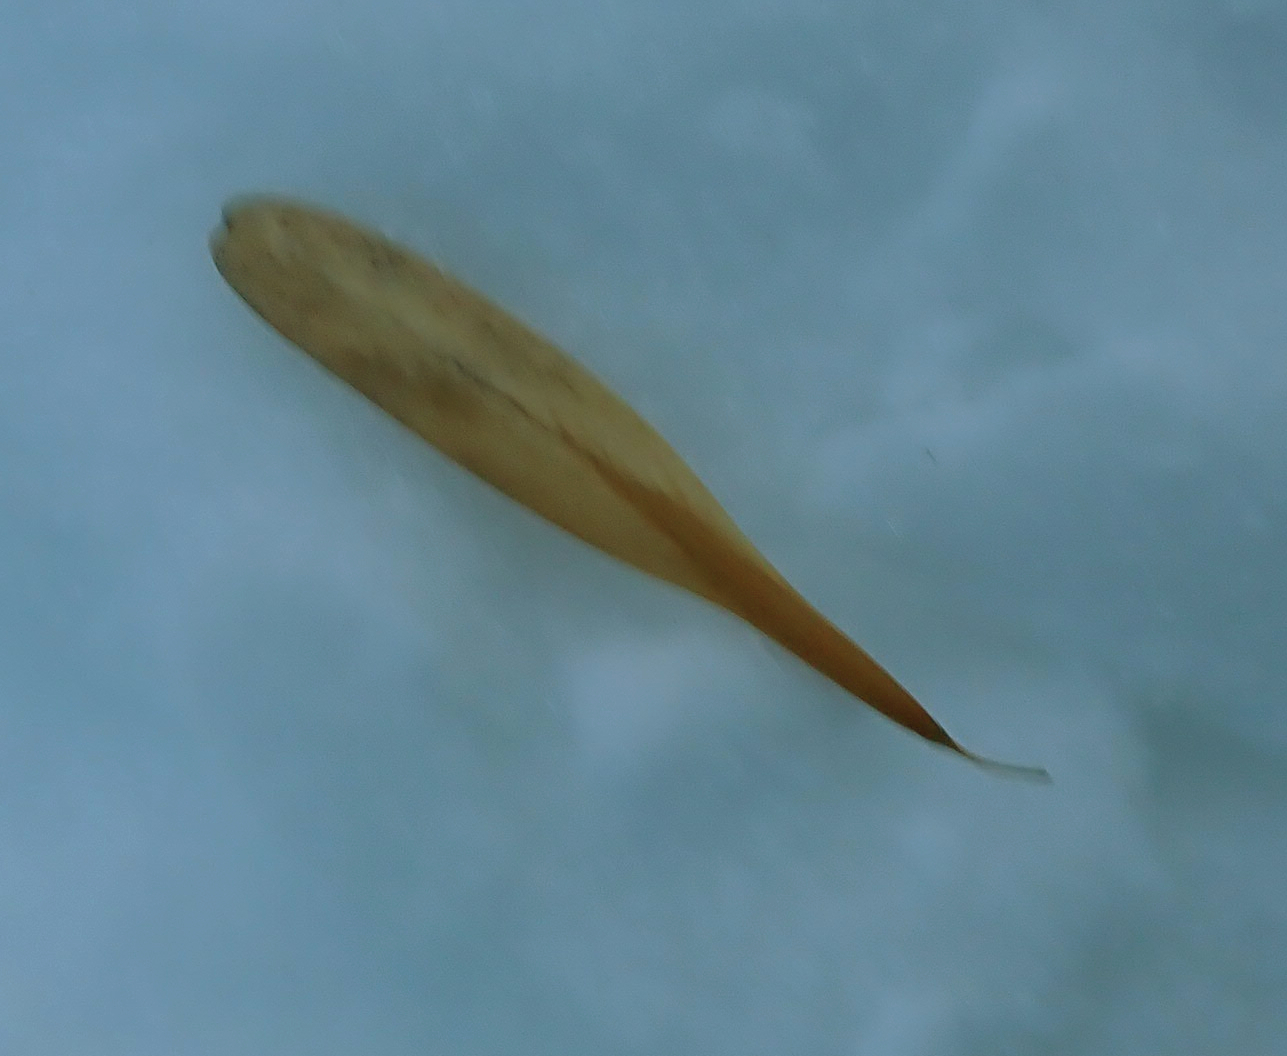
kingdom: Plantae
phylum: Tracheophyta
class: Magnoliopsida
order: Lamiales
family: Oleaceae
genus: Fraxinus
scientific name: Fraxinus pennsylvanica
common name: Green ash
